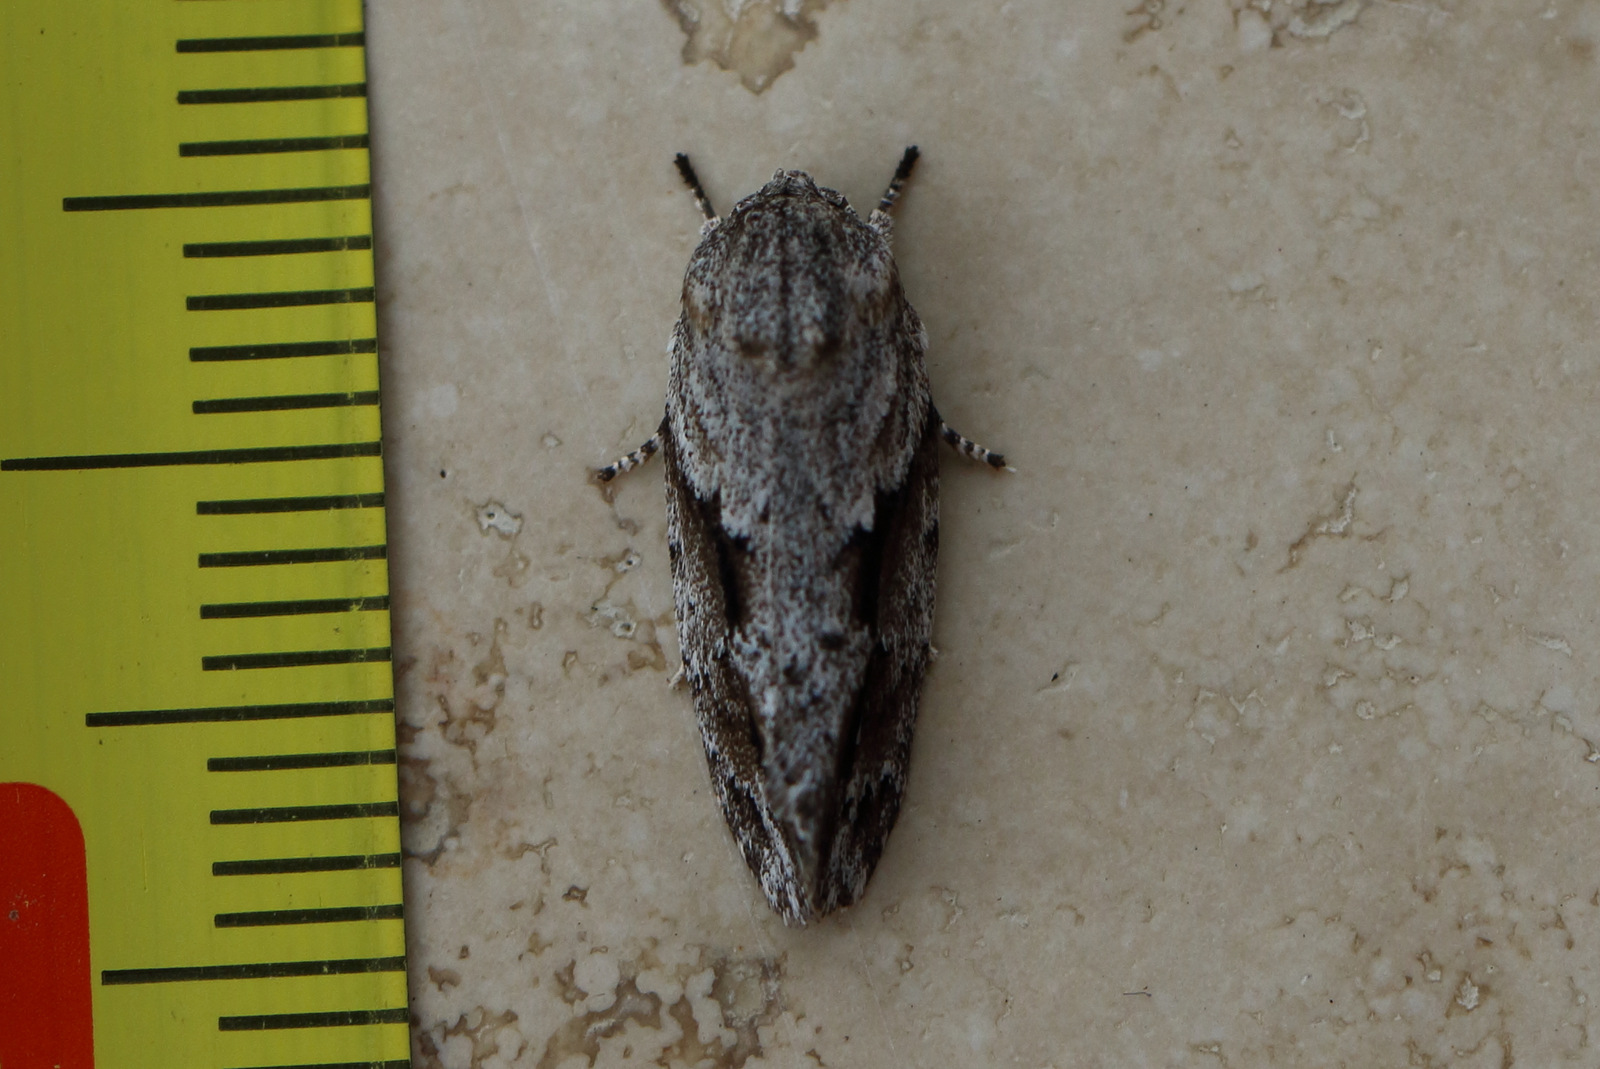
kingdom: Animalia
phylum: Arthropoda
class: Insecta
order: Lepidoptera
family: Depressariidae
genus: Agriophara
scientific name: Agriophara confertella
